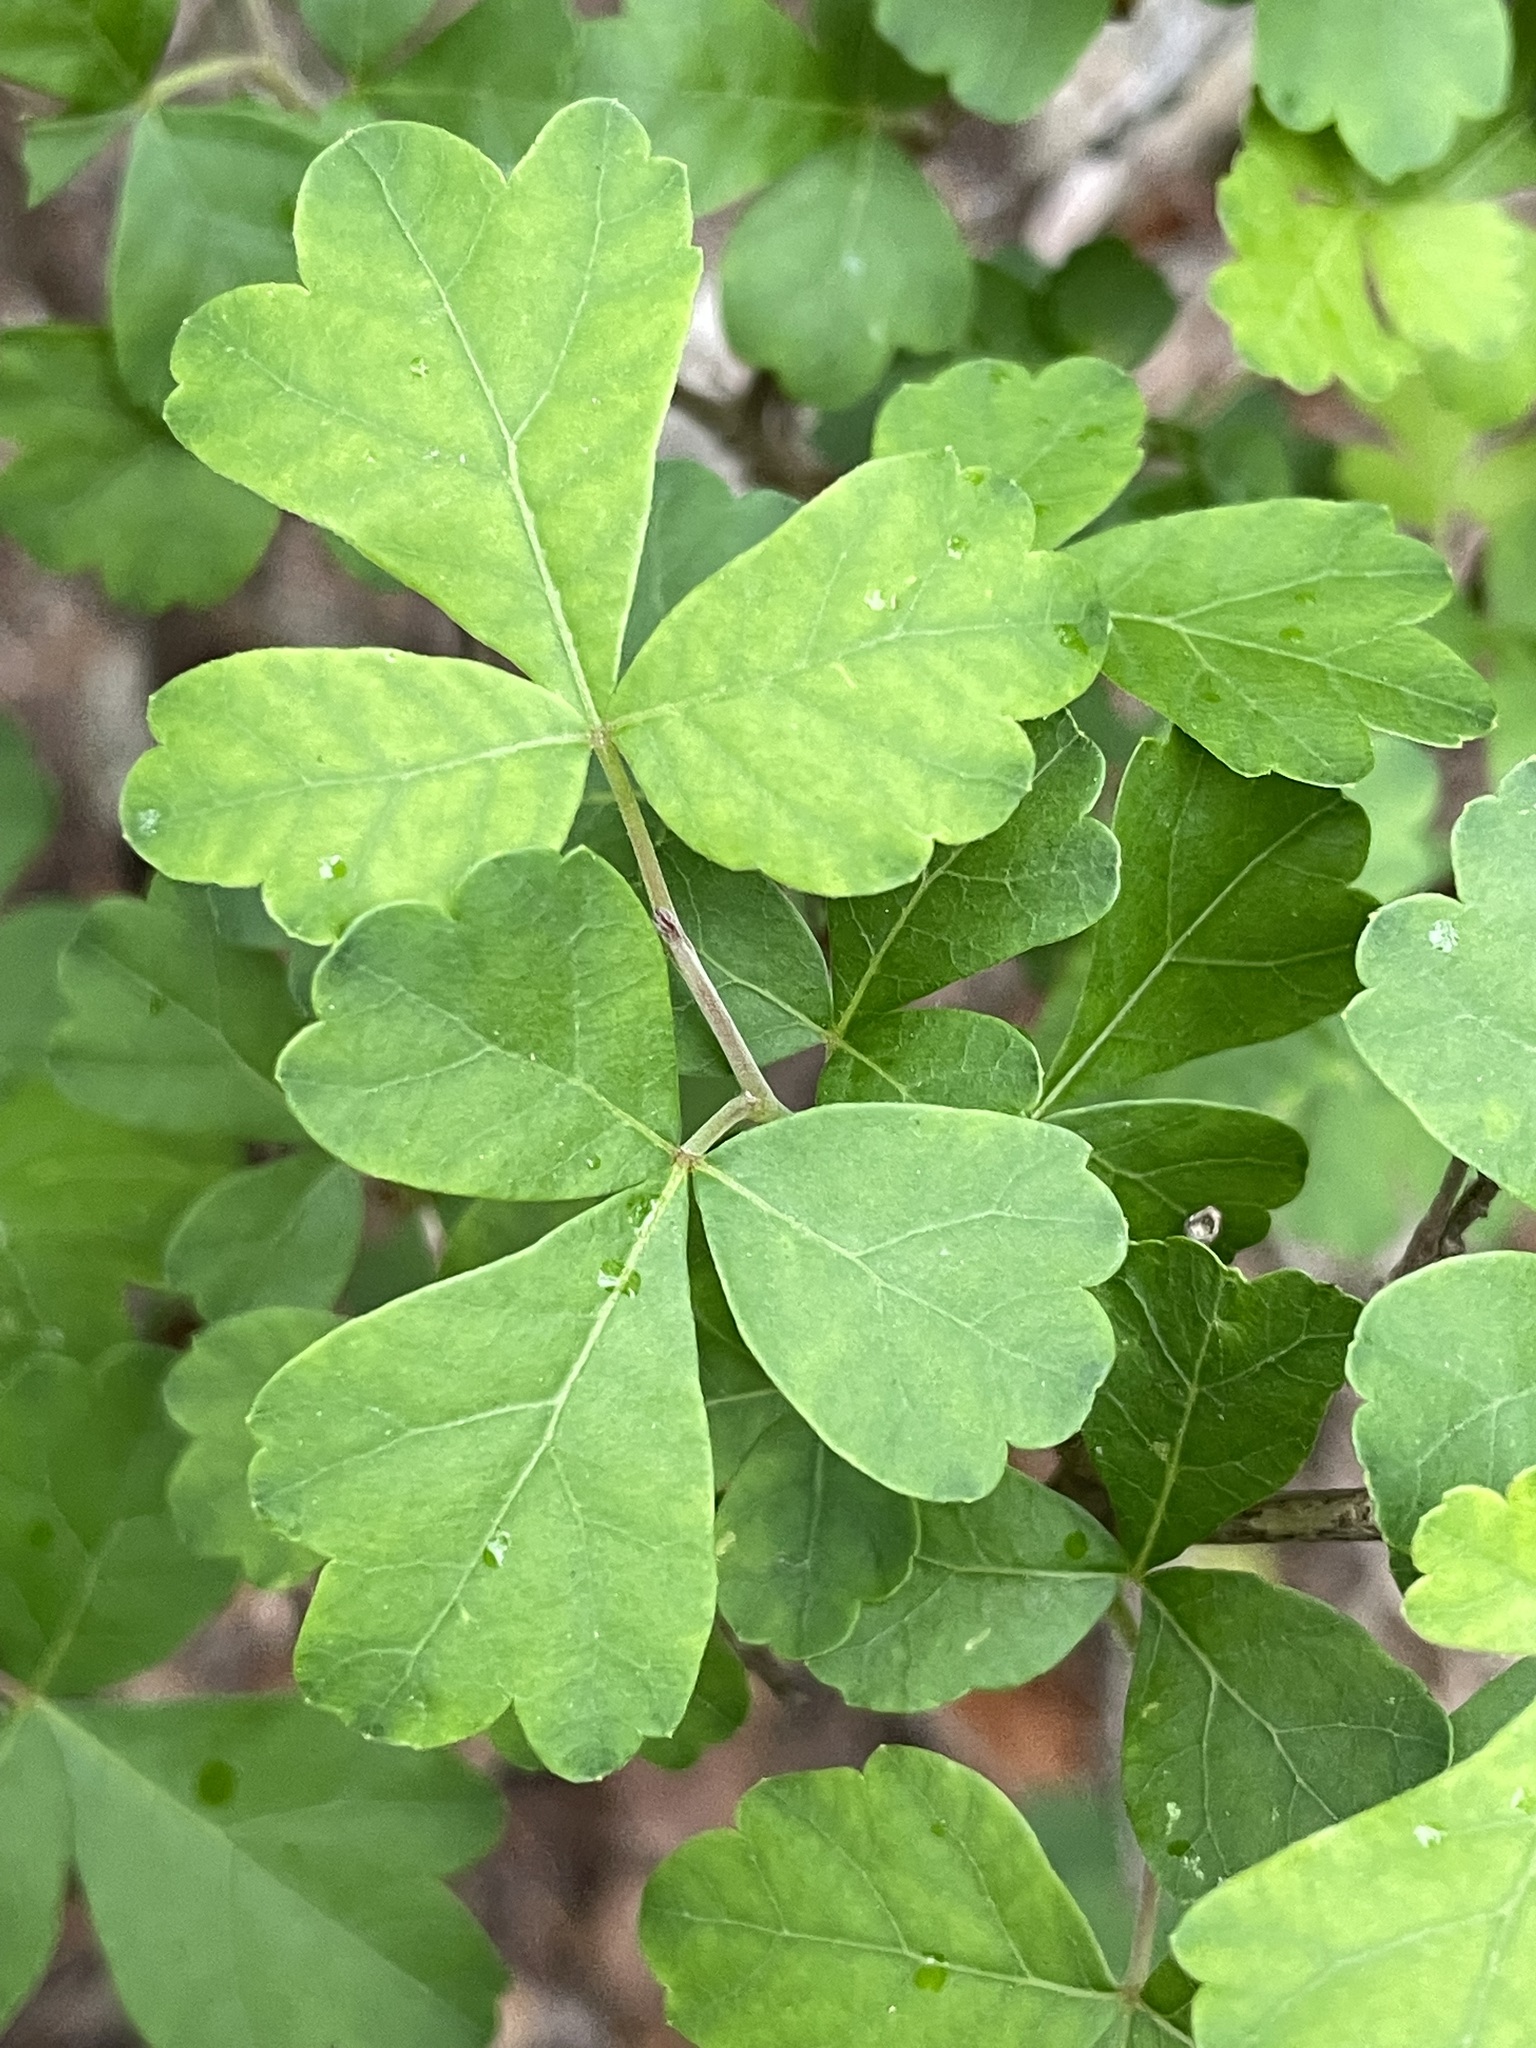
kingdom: Plantae
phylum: Tracheophyta
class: Magnoliopsida
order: Sapindales
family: Anacardiaceae
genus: Rhus
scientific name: Rhus aromatica
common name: Aromatic sumac
